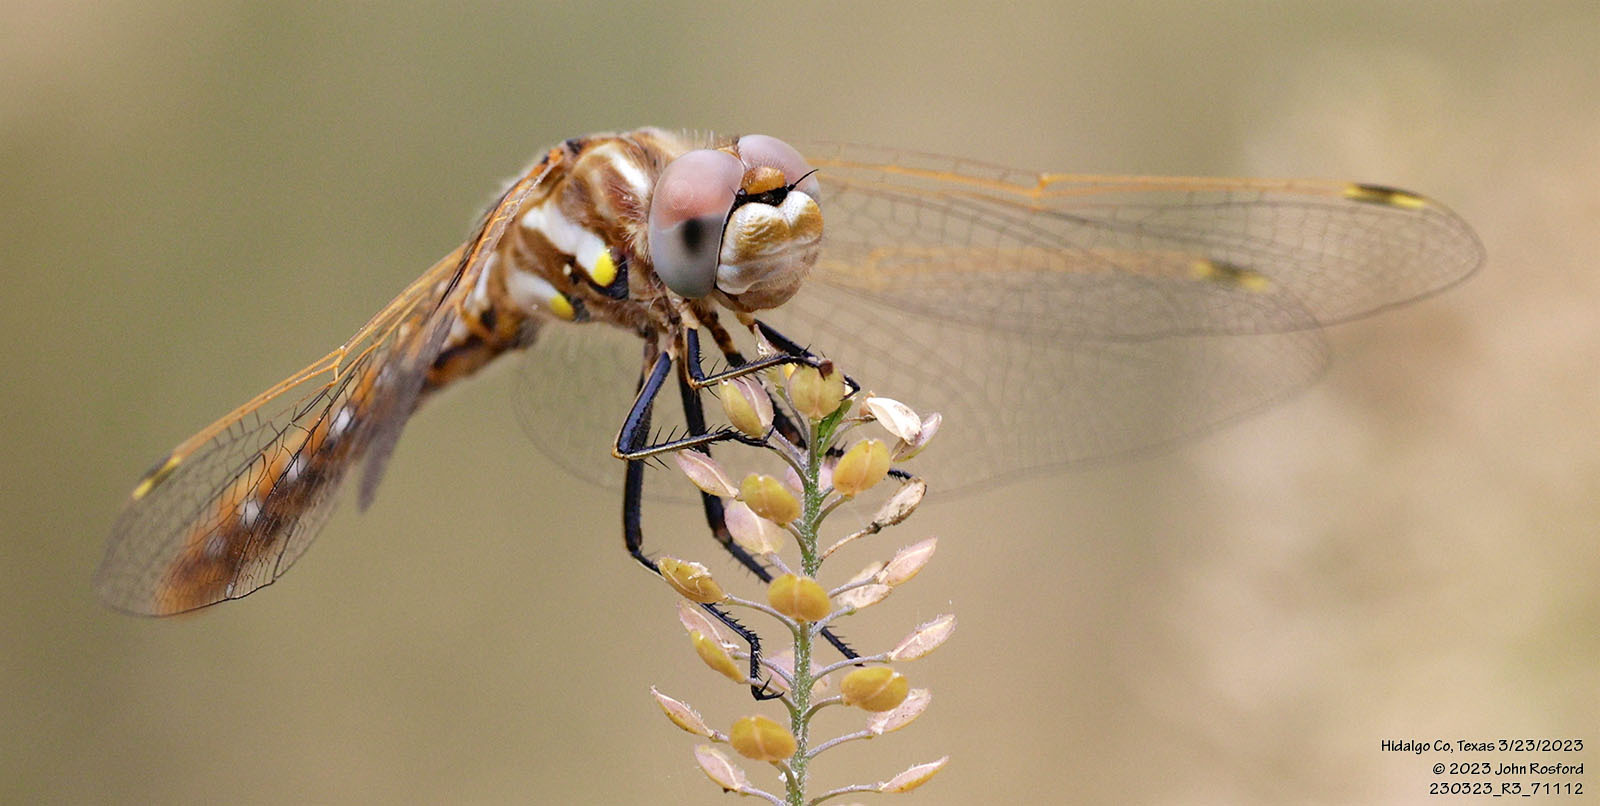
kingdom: Animalia
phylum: Arthropoda
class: Insecta
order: Odonata
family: Libellulidae
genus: Sympetrum
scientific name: Sympetrum corruptum
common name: Variegated meadowhawk
